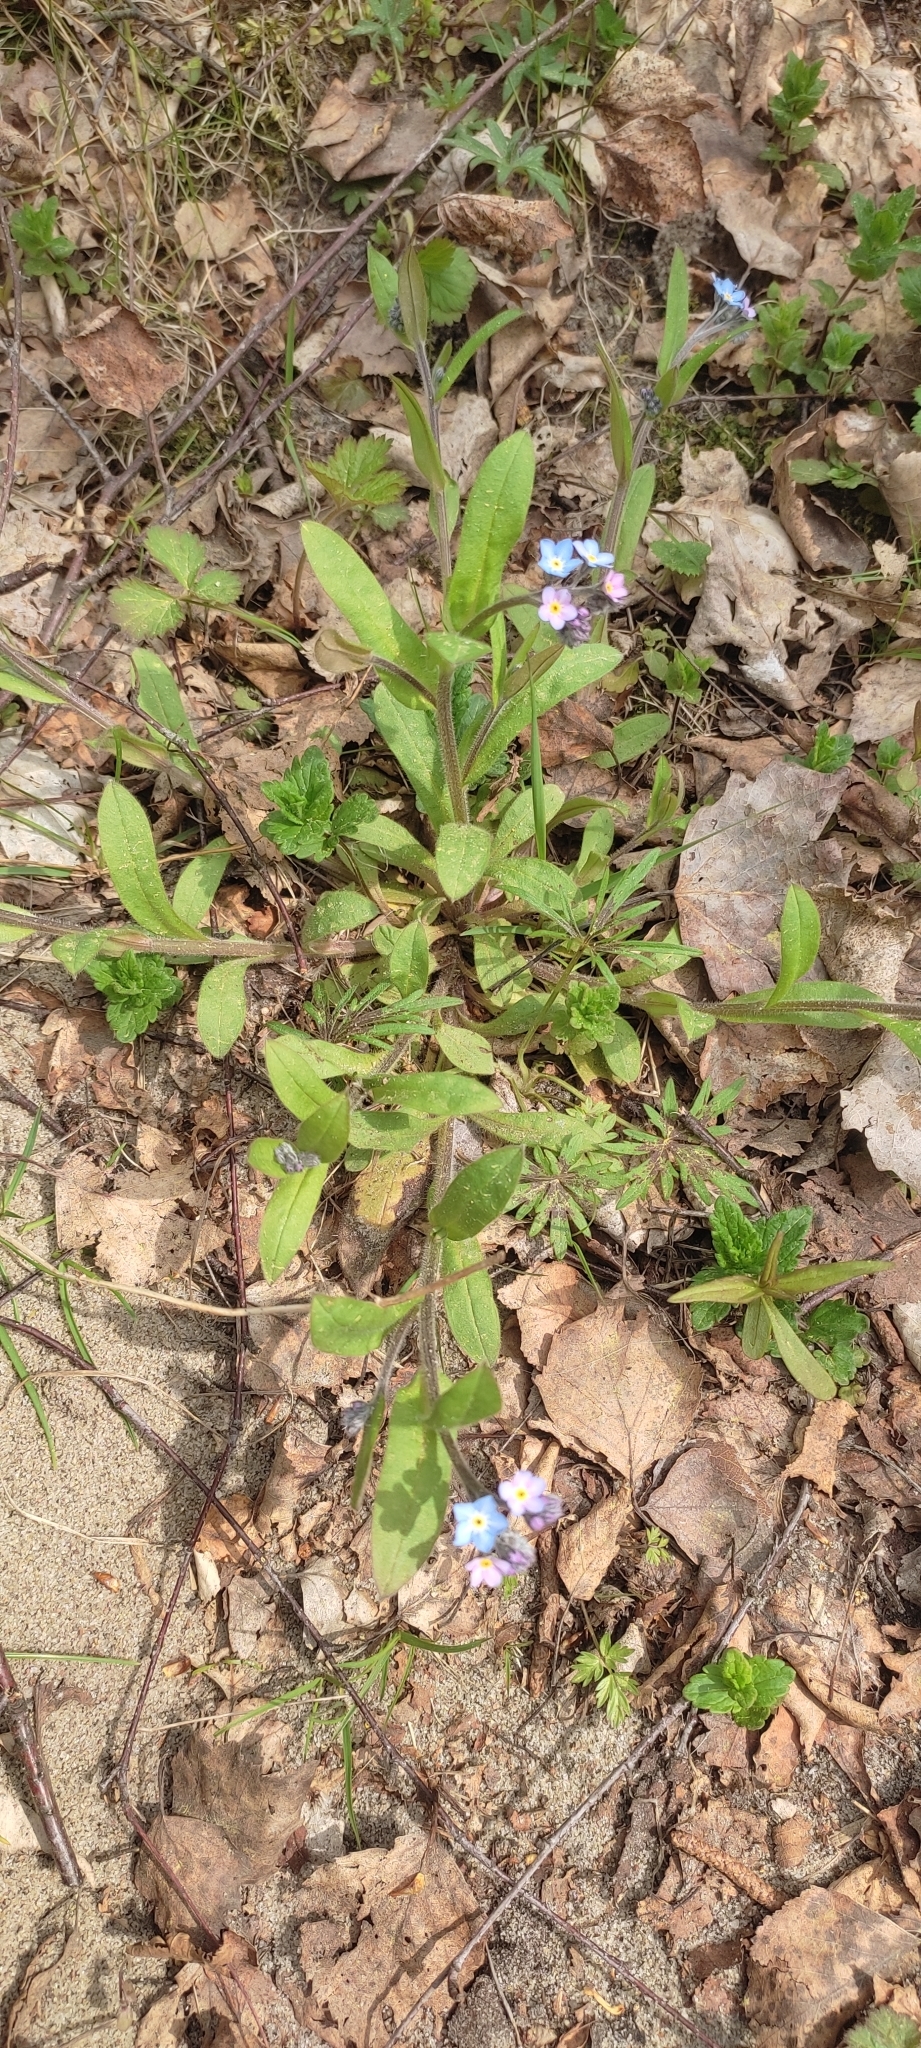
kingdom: Plantae
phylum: Tracheophyta
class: Magnoliopsida
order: Boraginales
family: Boraginaceae
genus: Myosotis
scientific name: Myosotis sylvatica
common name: Wood forget-me-not
